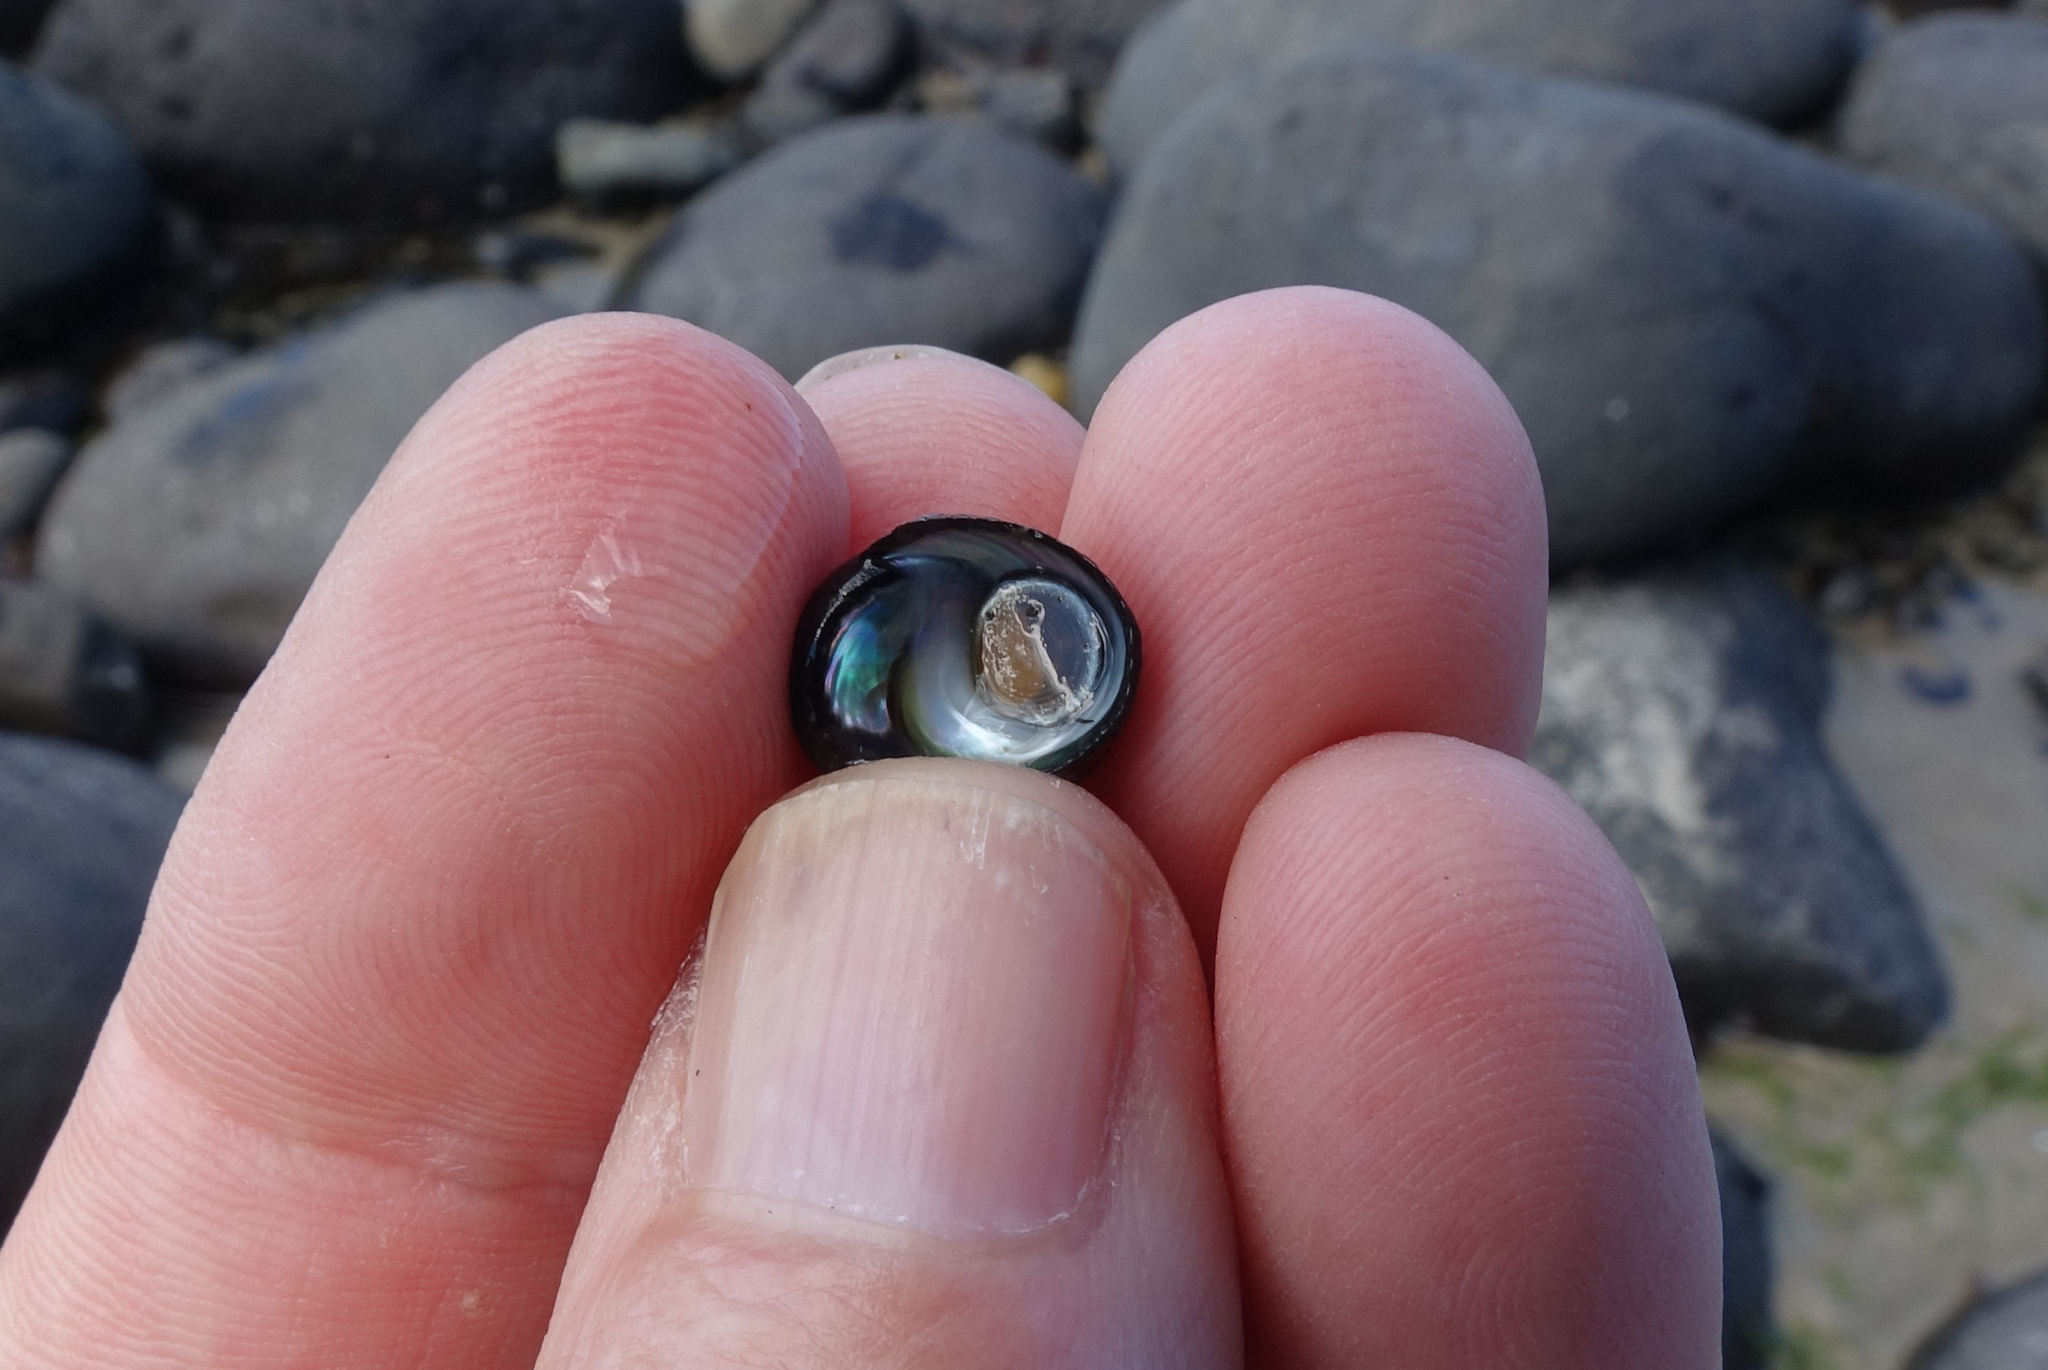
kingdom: Animalia
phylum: Mollusca
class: Gastropoda
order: Trochida
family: Trochidae
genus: Diloma
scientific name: Diloma zelandicum
